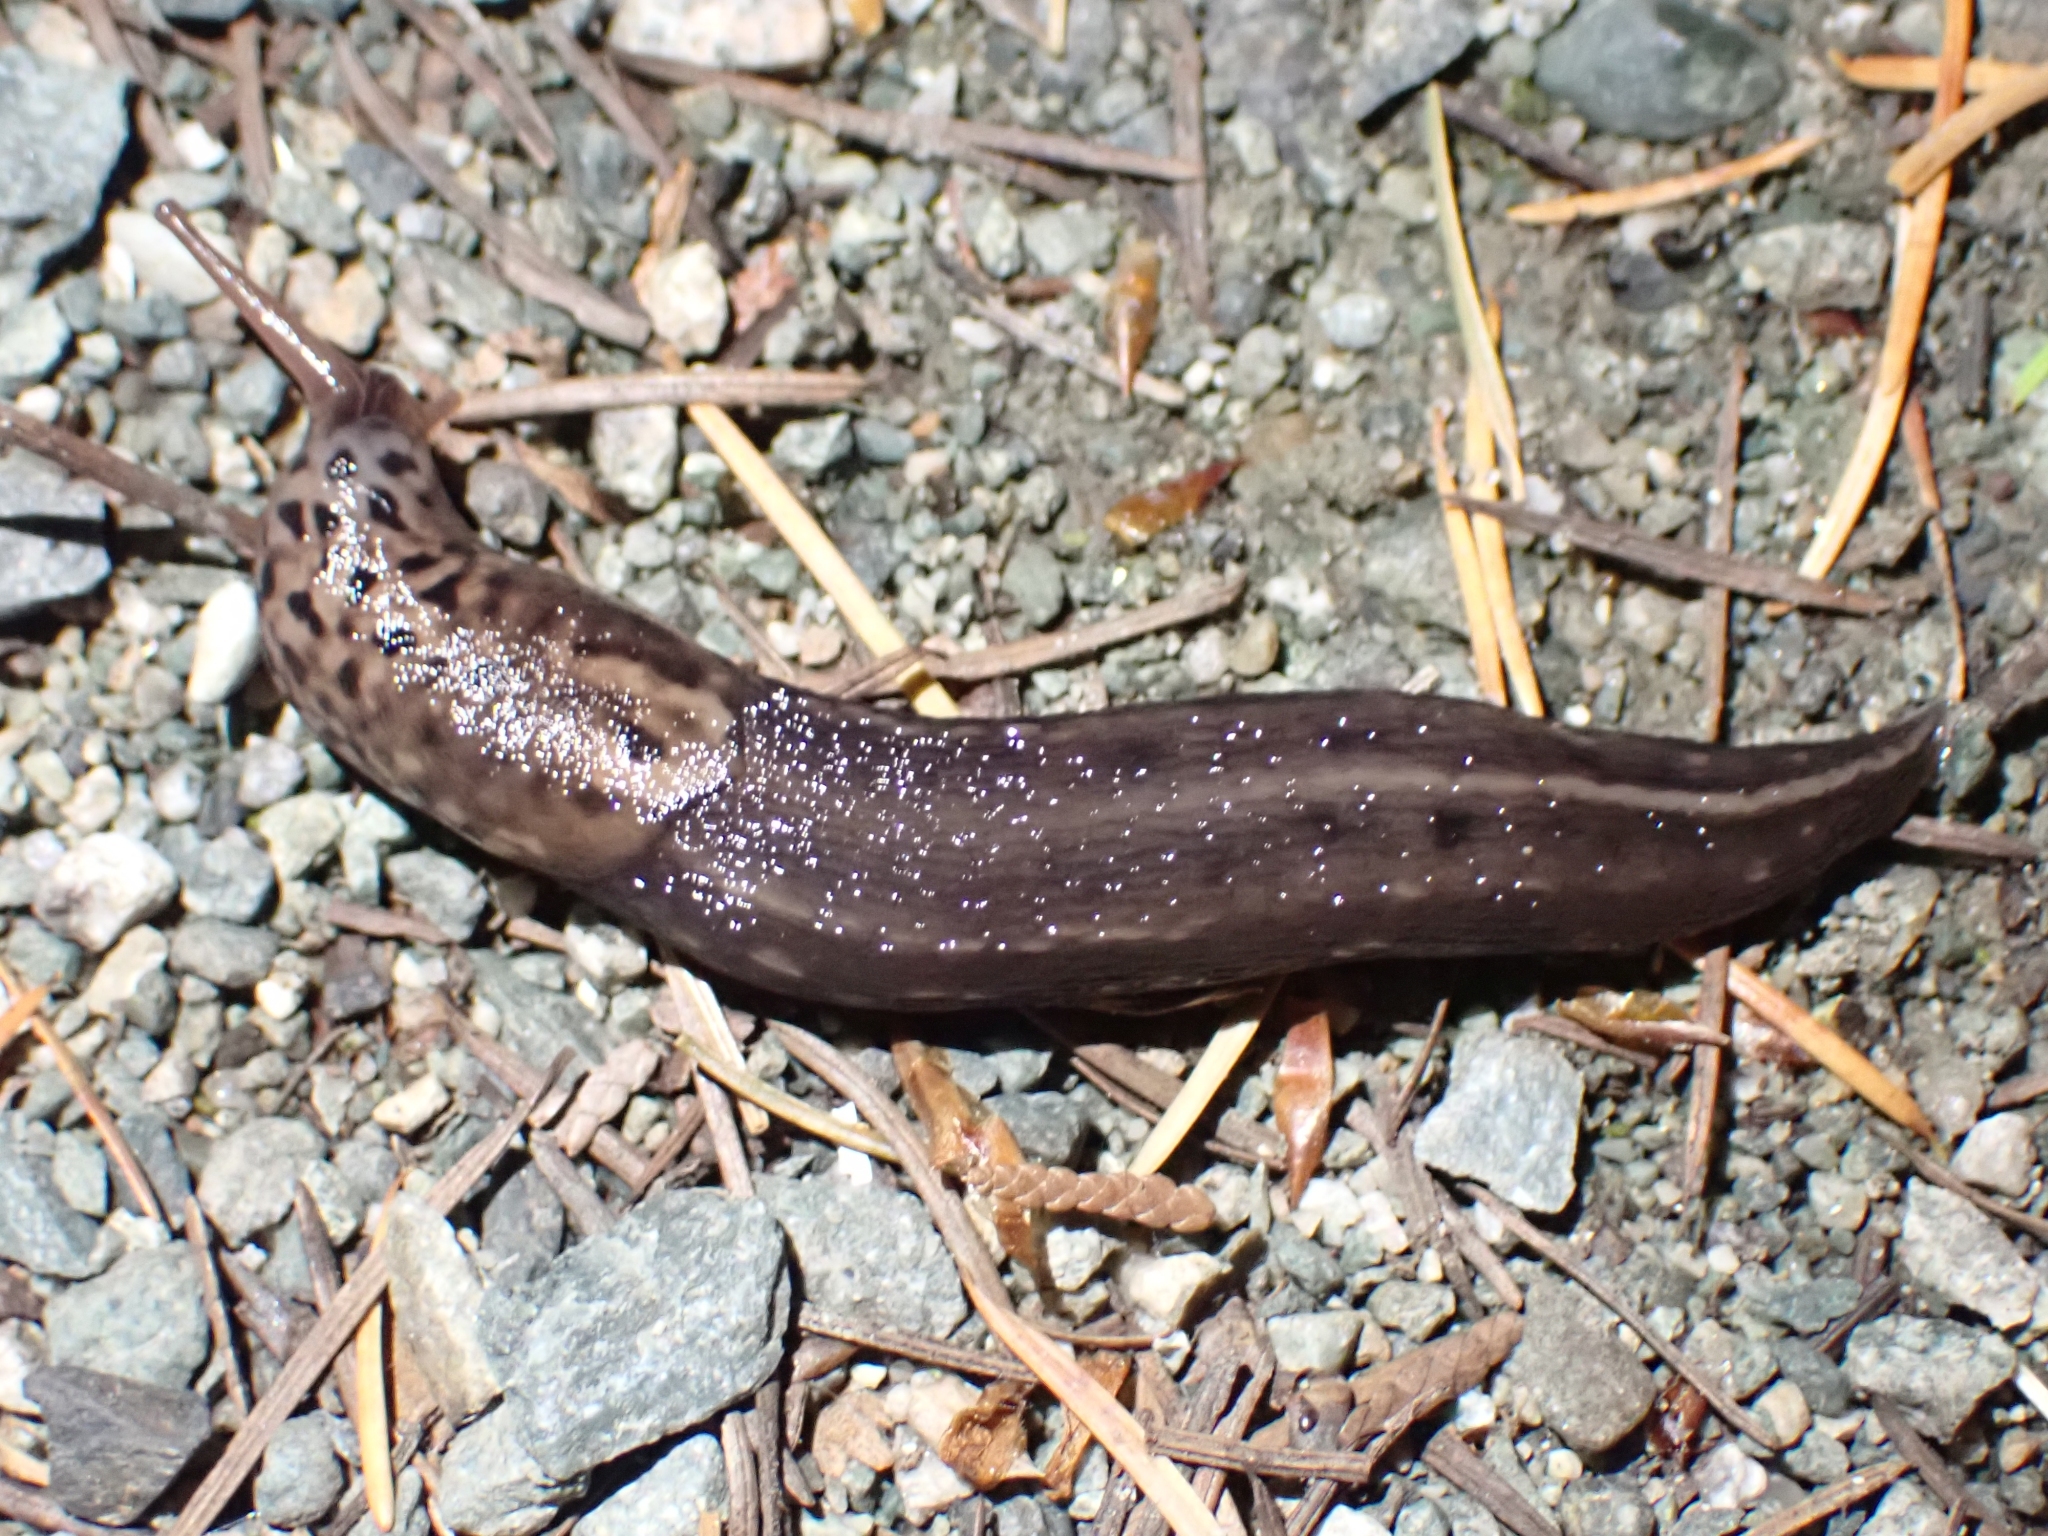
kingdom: Animalia
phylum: Mollusca
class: Gastropoda
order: Stylommatophora
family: Limacidae
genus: Limax
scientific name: Limax maximus
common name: Great grey slug
